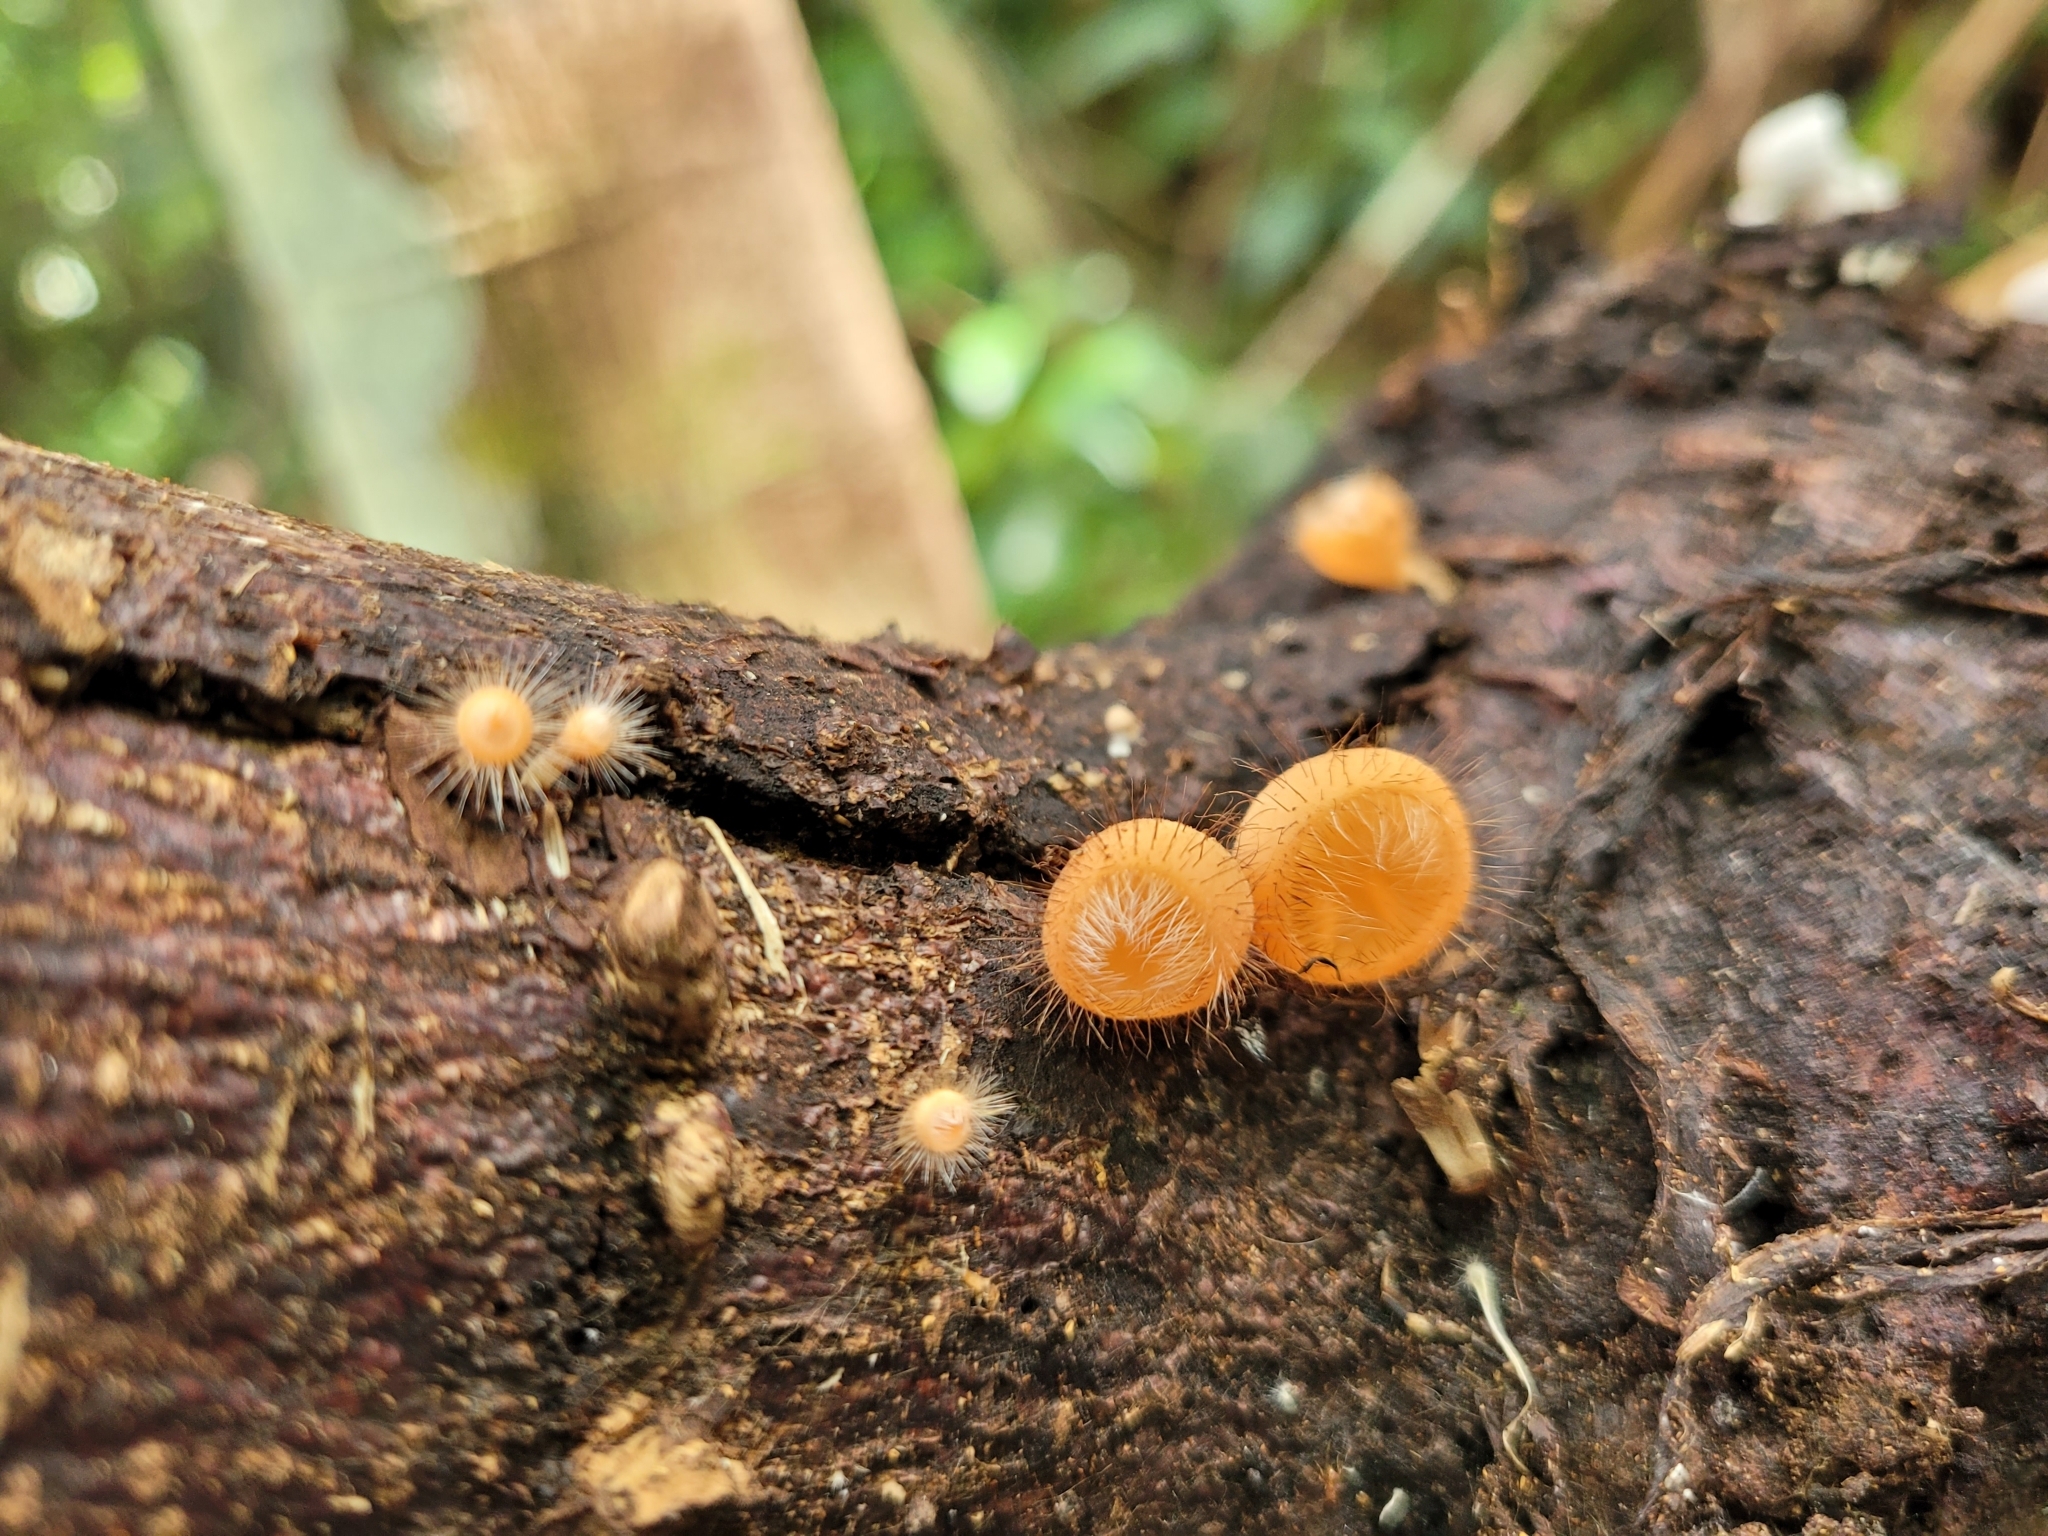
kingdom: Fungi
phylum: Ascomycota
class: Pezizomycetes
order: Pezizales
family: Sarcoscyphaceae
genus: Cookeina
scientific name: Cookeina tricholoma
